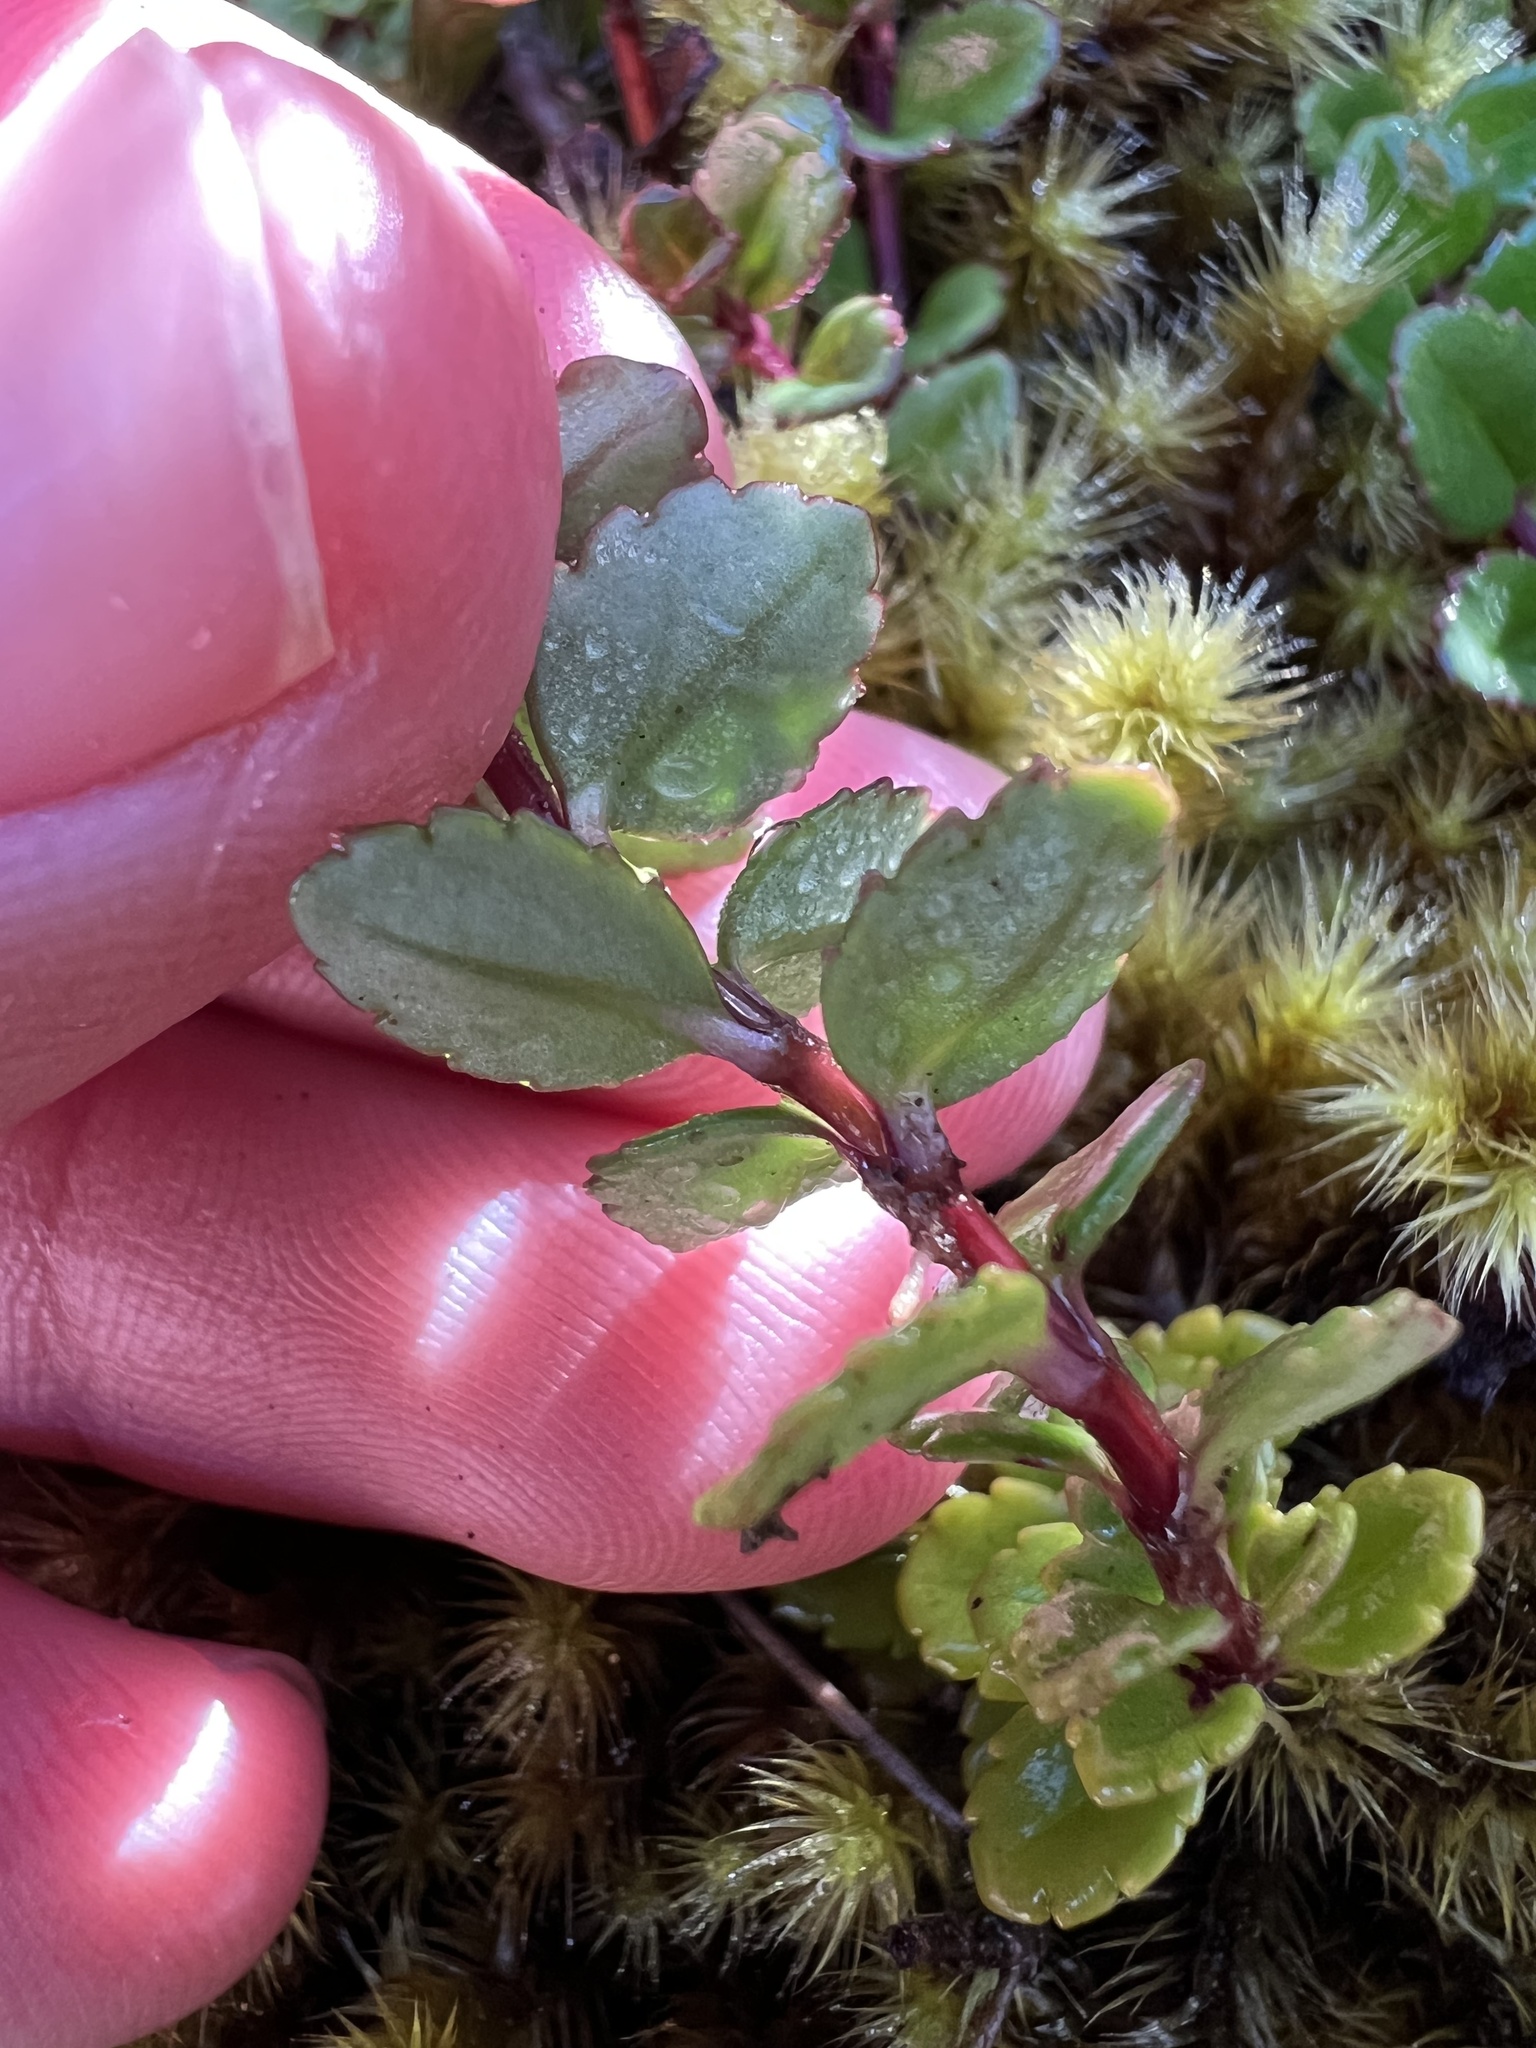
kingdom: Plantae
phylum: Tracheophyta
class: Magnoliopsida
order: Lamiales
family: Plantaginaceae
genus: Veronica
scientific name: Veronica lanceolata
